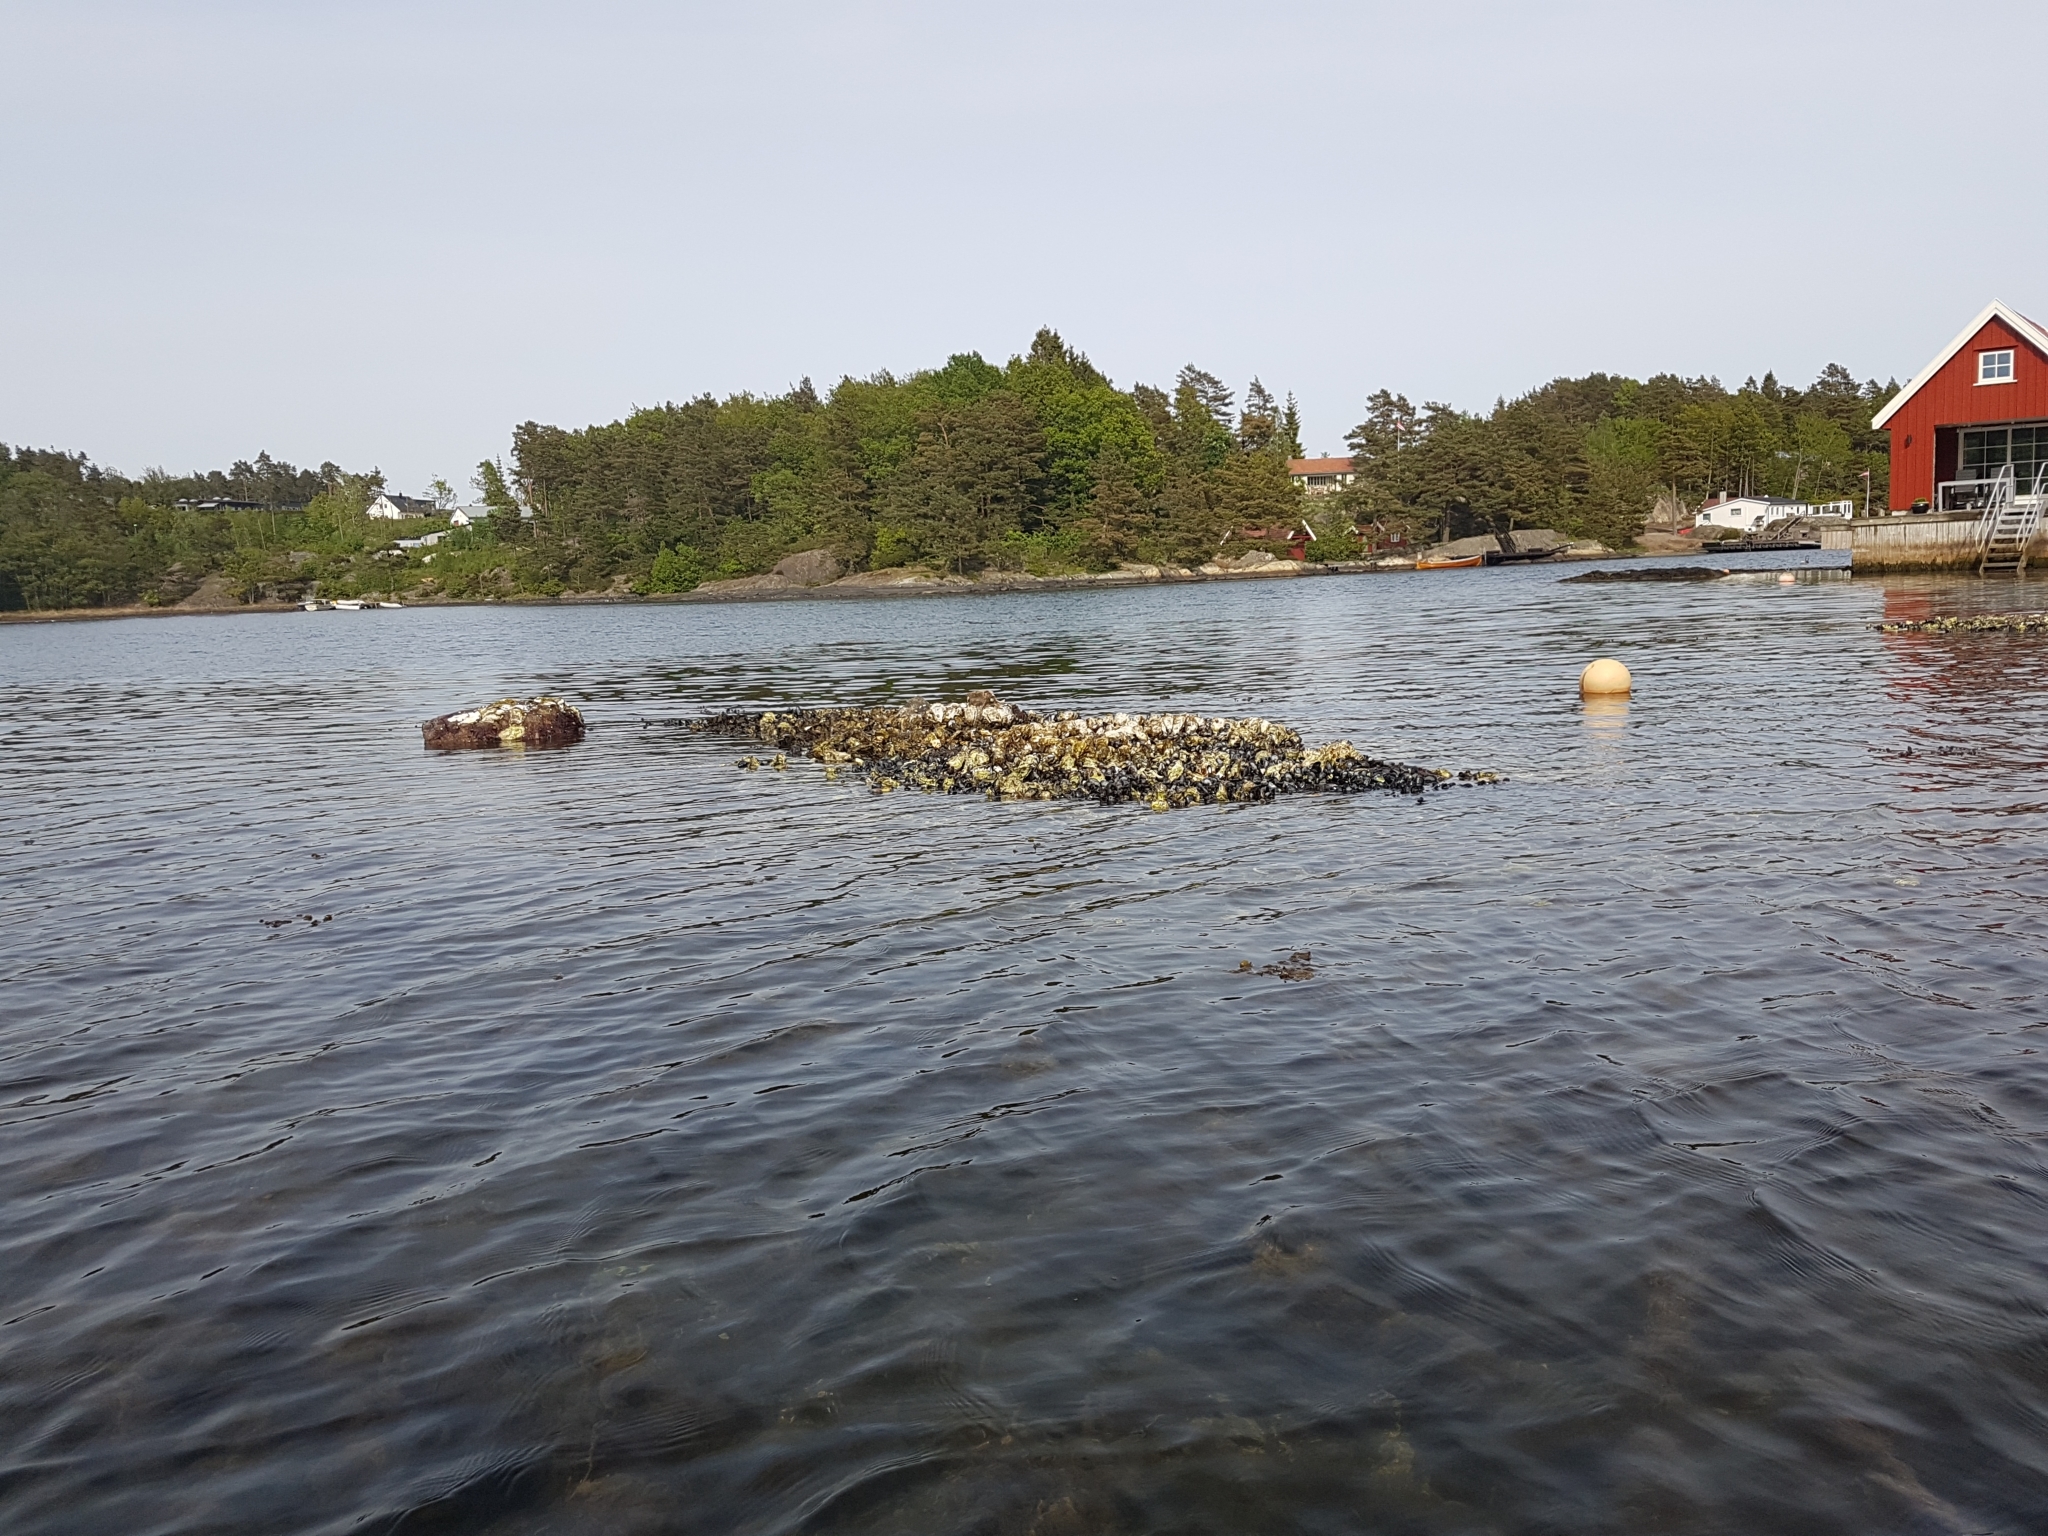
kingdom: Animalia
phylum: Mollusca
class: Bivalvia
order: Ostreida
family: Ostreidae
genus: Magallana
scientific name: Magallana gigas
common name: Pacific oyster
